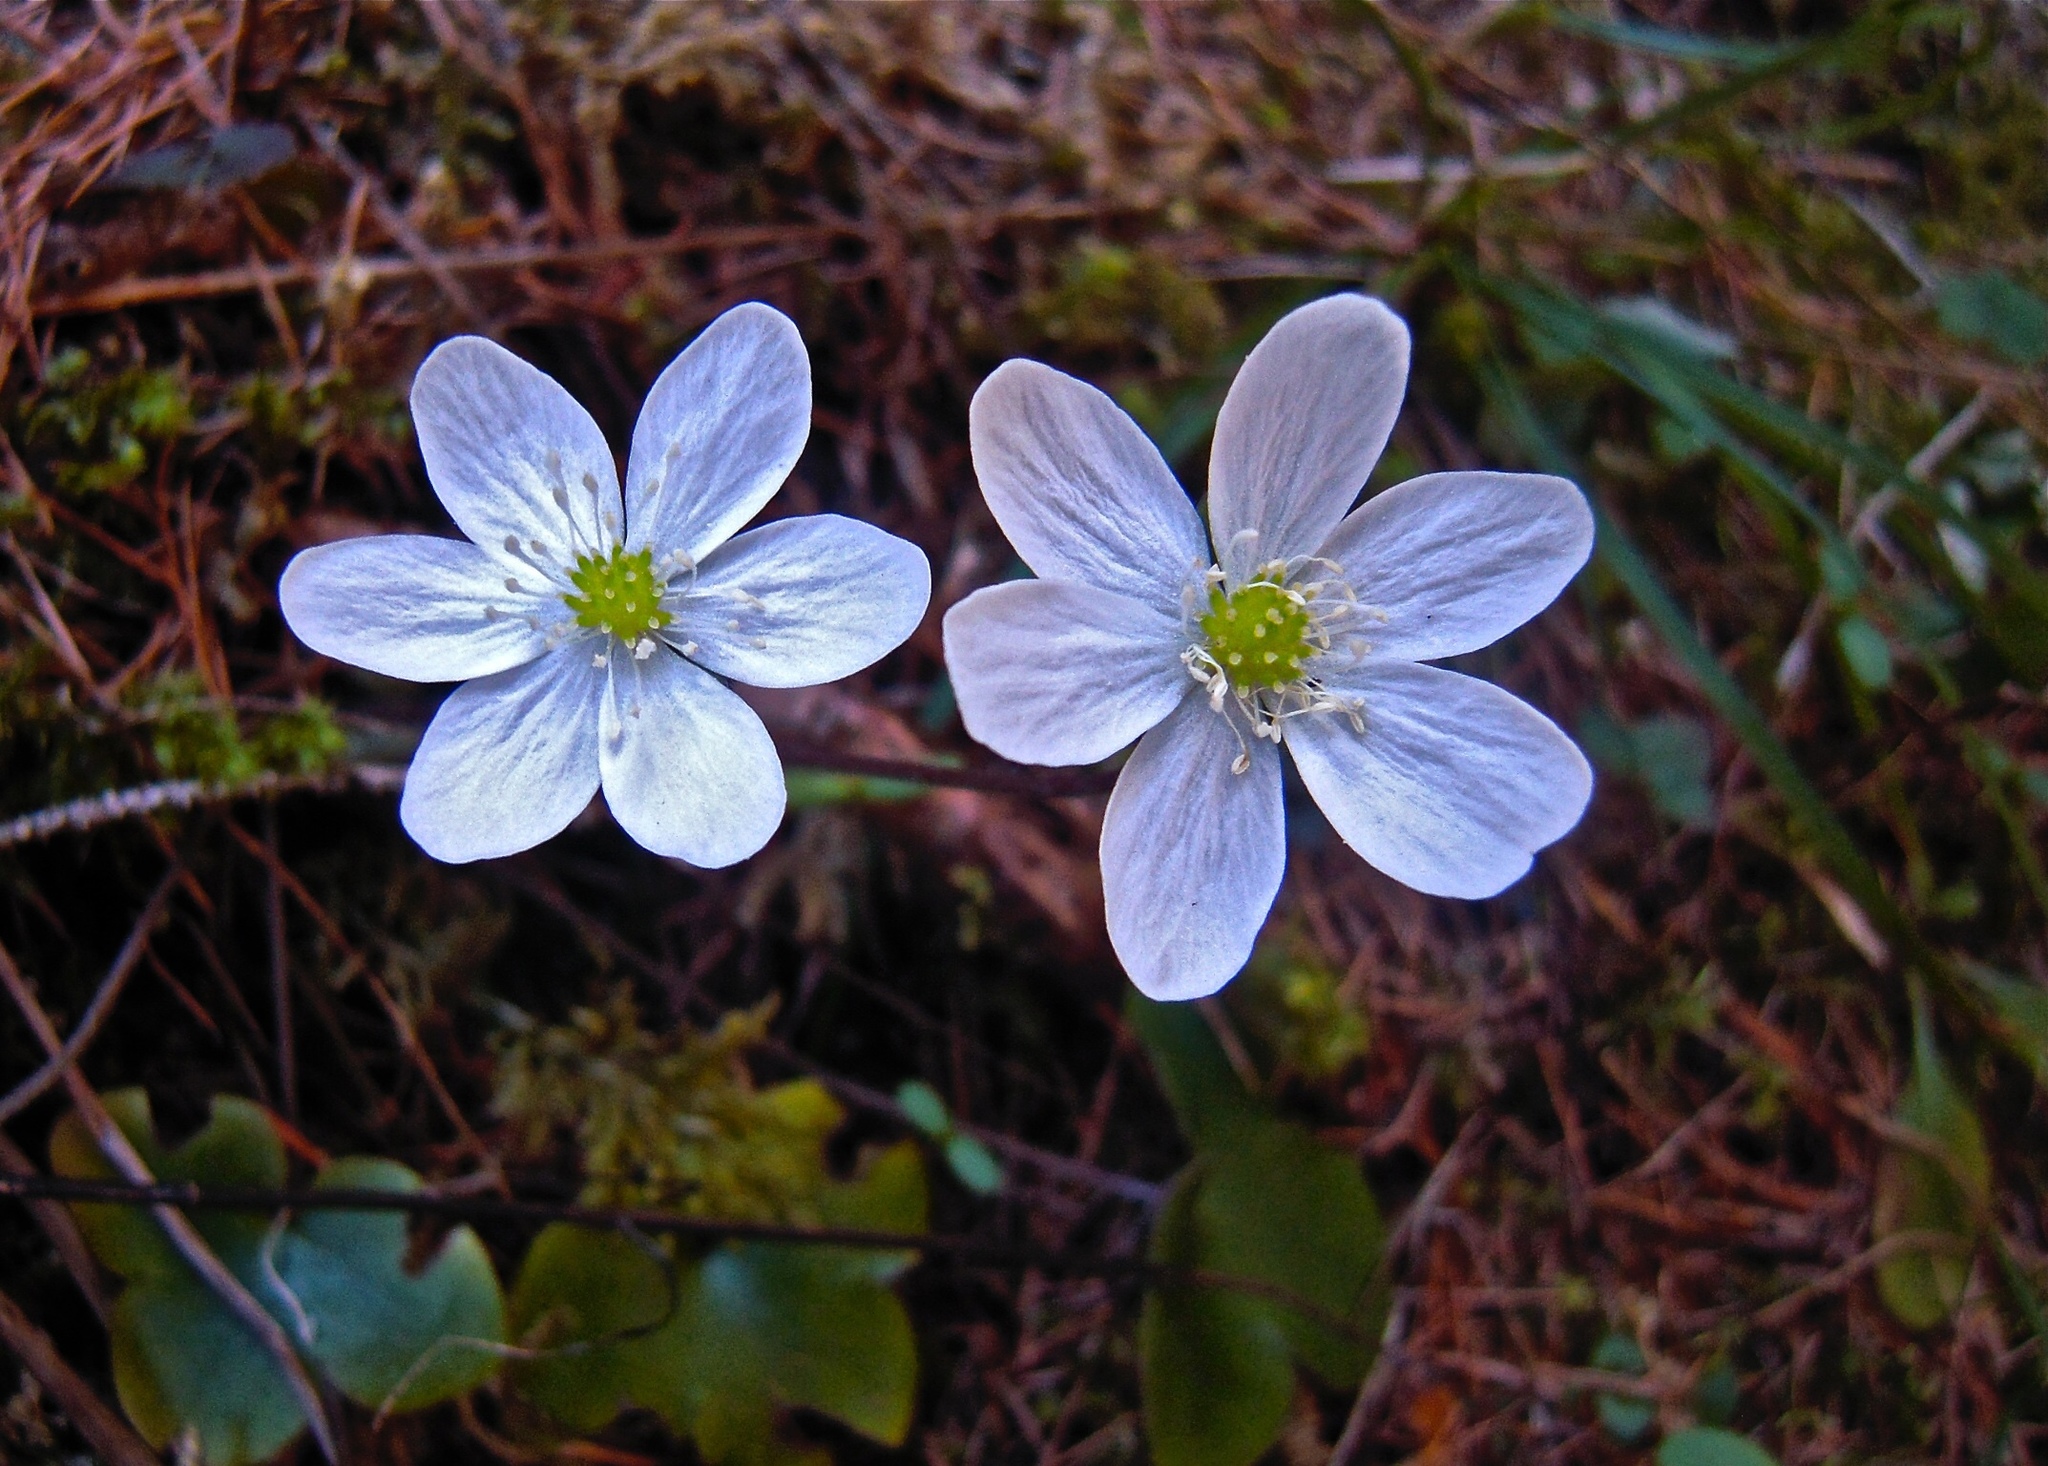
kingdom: Plantae
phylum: Tracheophyta
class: Magnoliopsida
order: Ranunculales
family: Ranunculaceae
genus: Hepatica
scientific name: Hepatica nobilis
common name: Liverleaf
